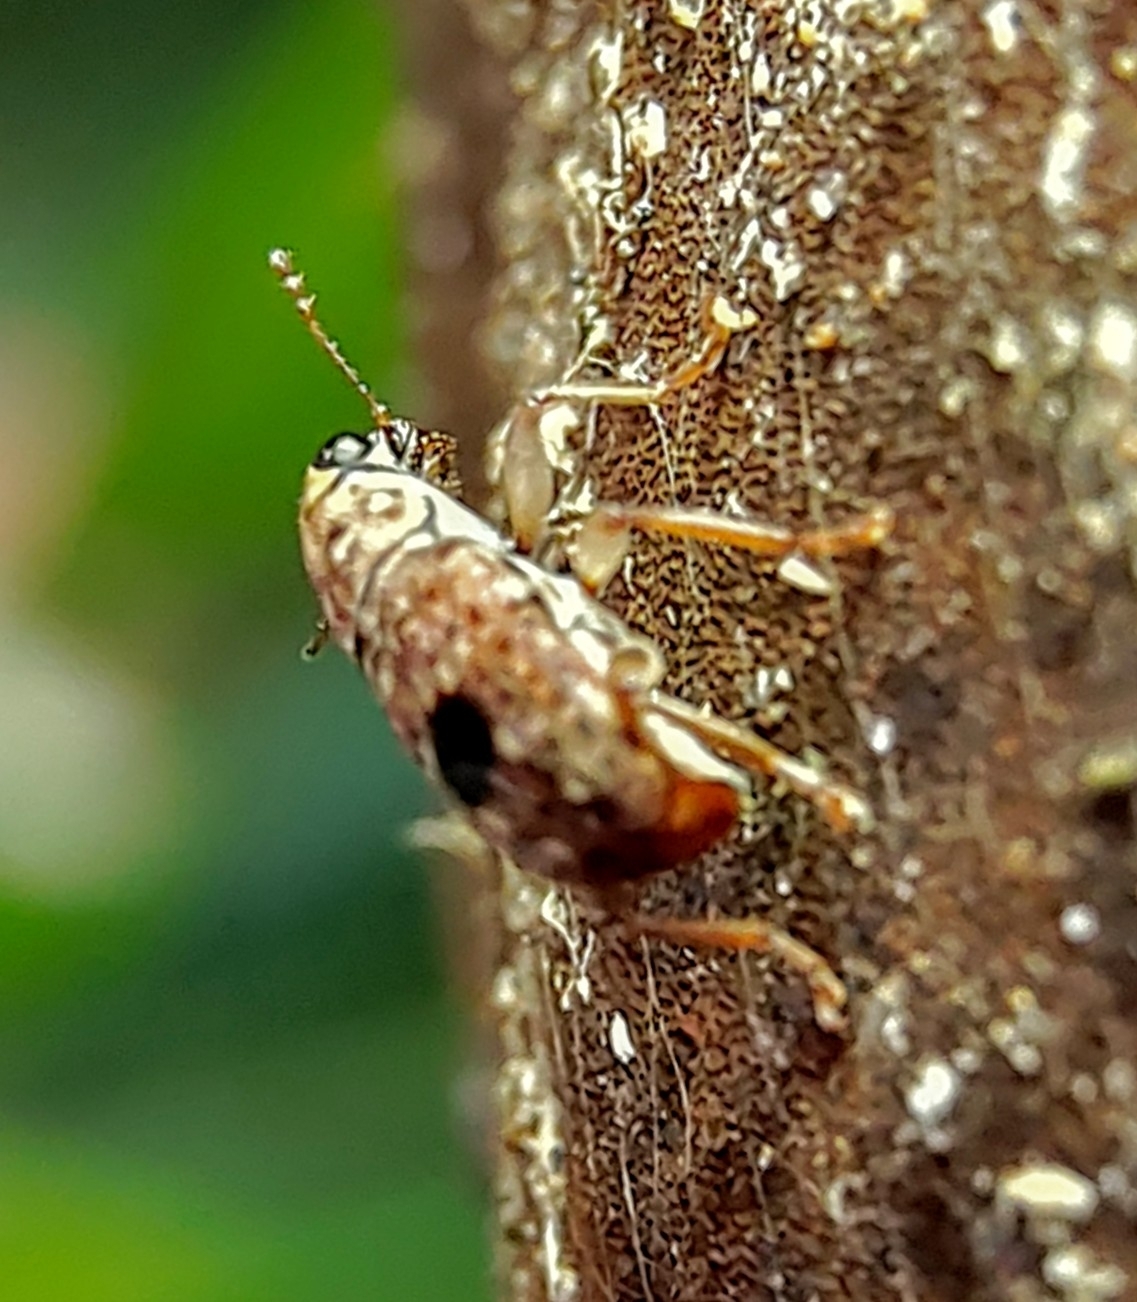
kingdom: Animalia
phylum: Arthropoda
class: Insecta
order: Coleoptera
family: Anthribidae
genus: Nessiara
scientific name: Nessiara centralis
